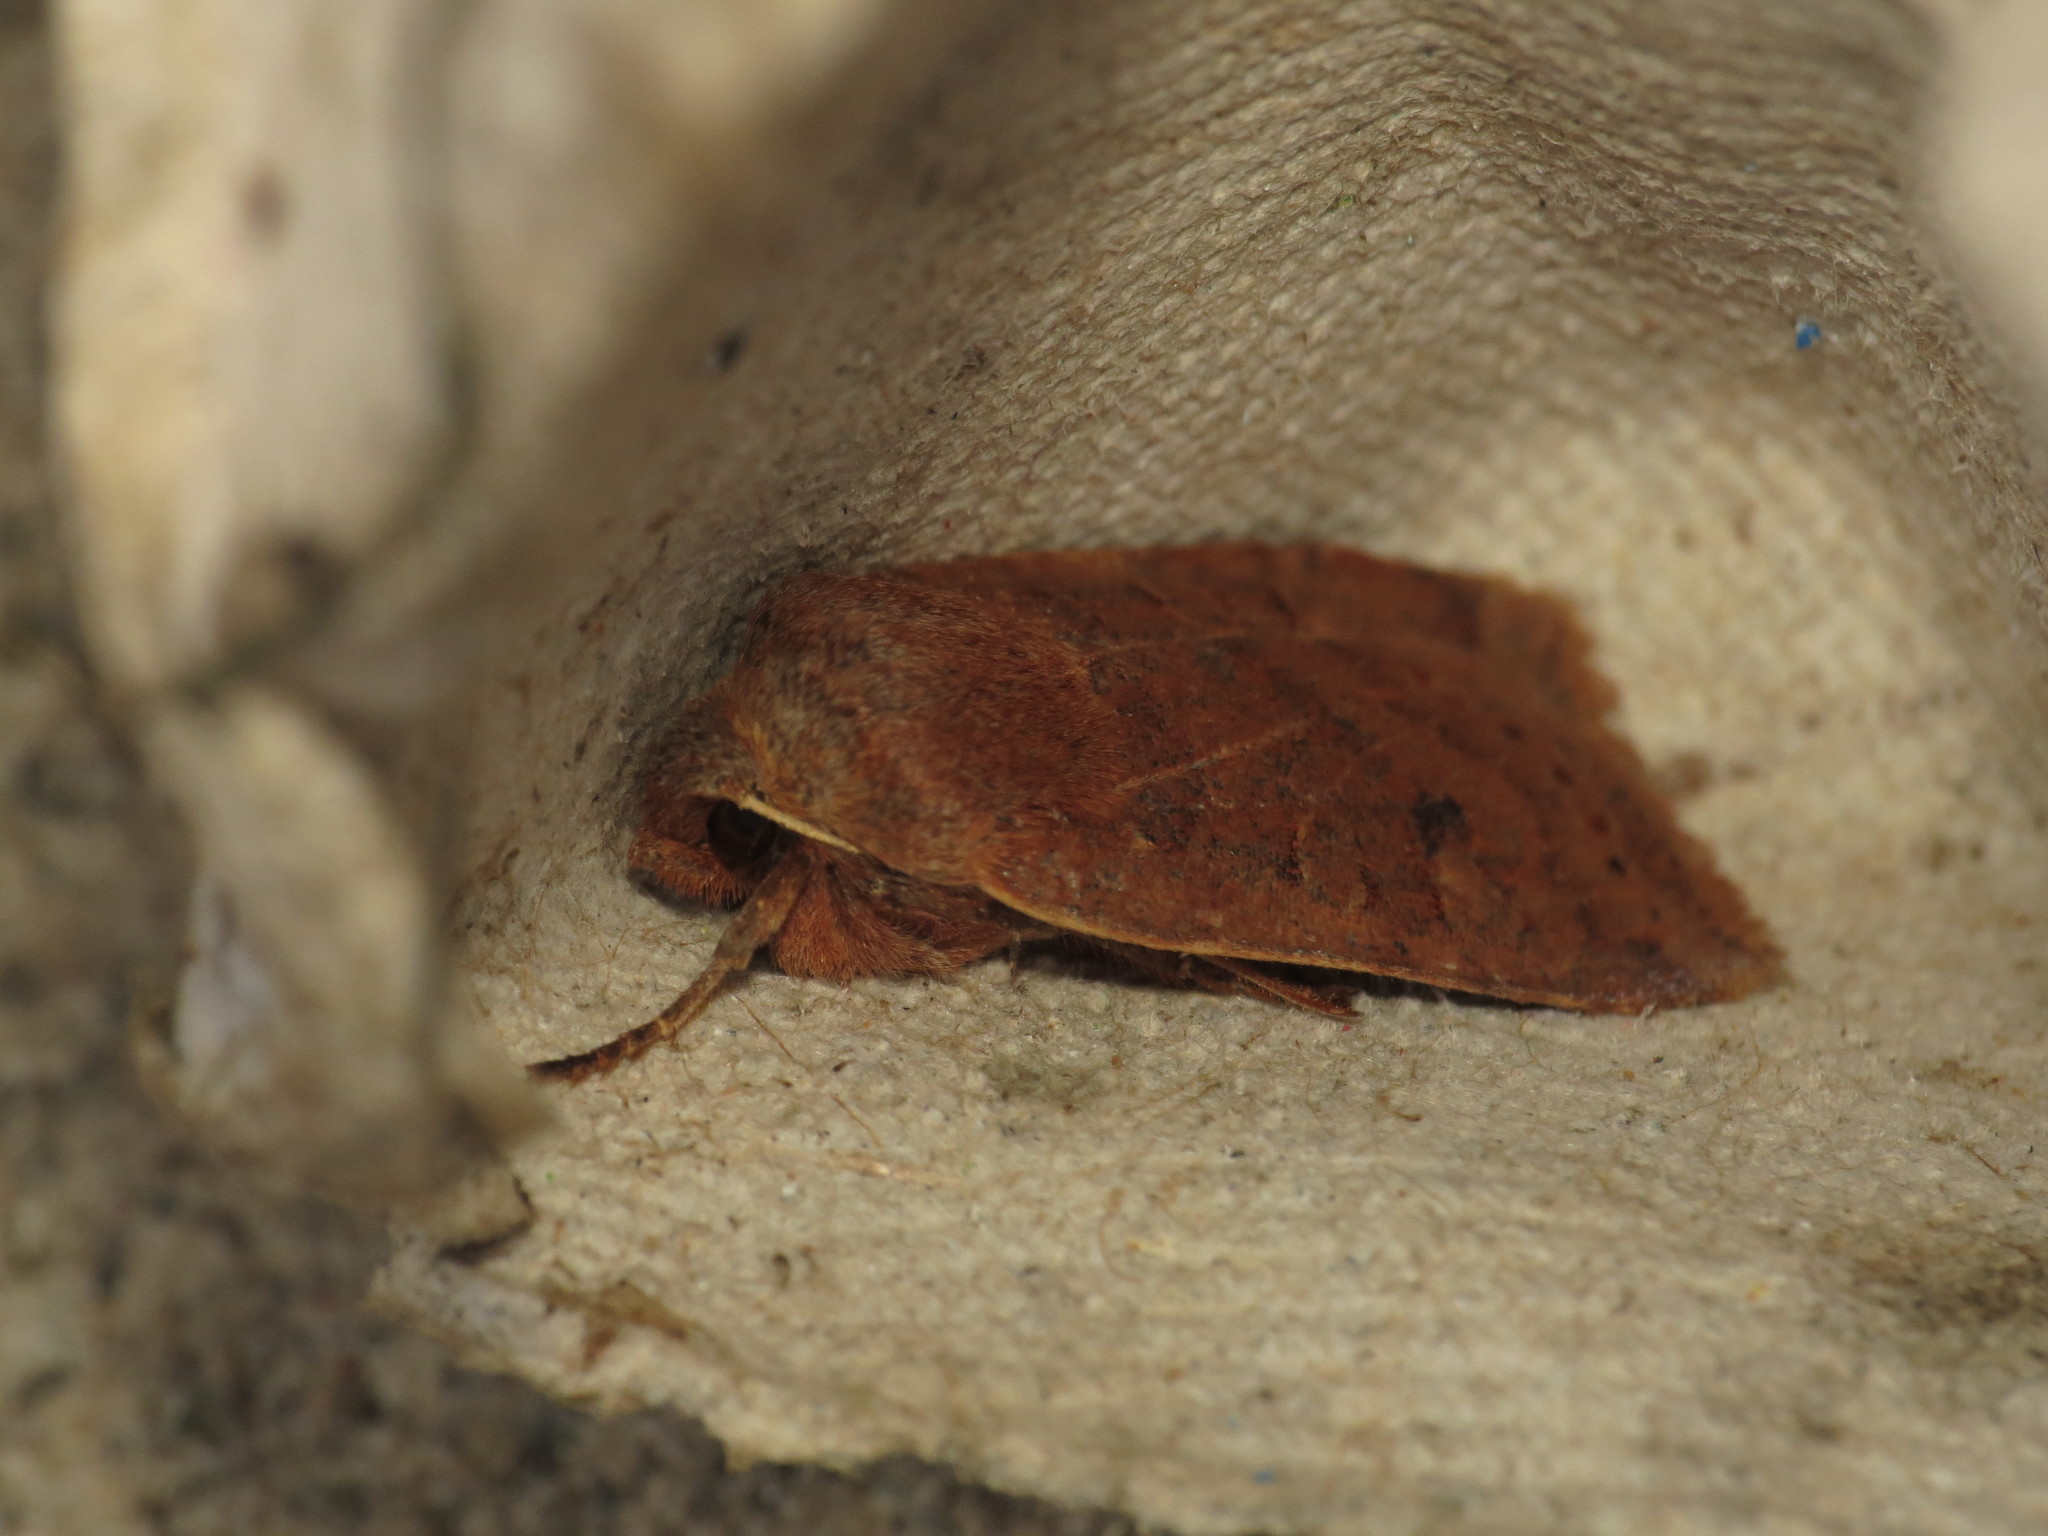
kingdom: Animalia
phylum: Arthropoda
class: Insecta
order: Lepidoptera
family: Noctuidae
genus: Conistra
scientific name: Conistra vaccinii
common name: Chestnut
